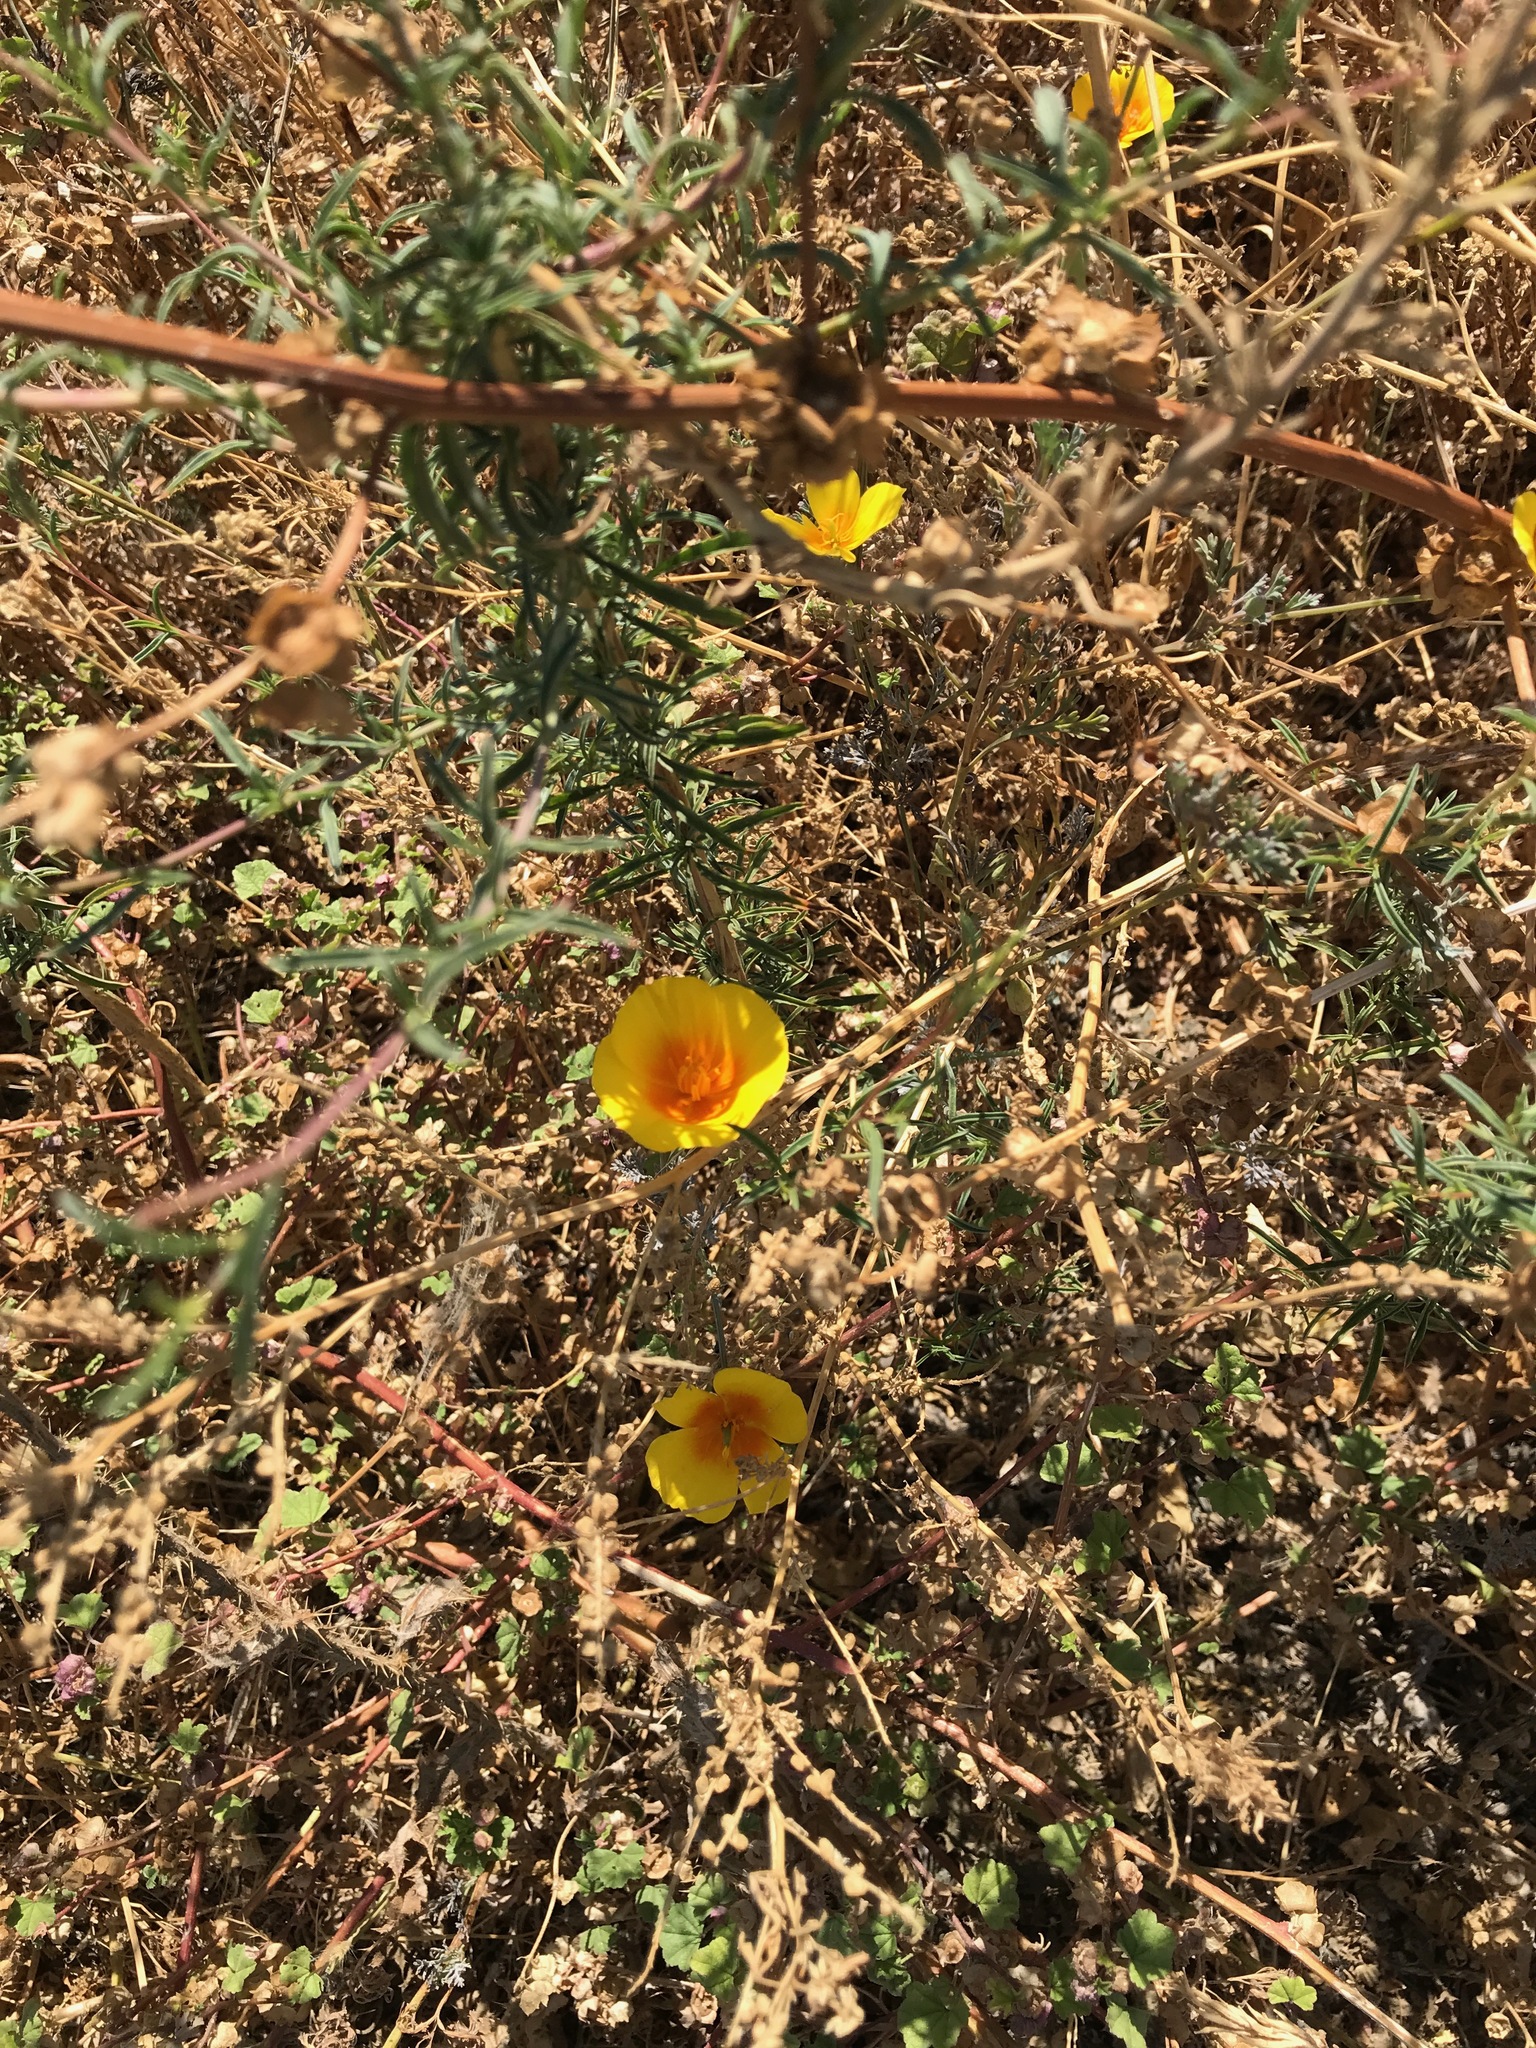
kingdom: Plantae
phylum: Tracheophyta
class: Magnoliopsida
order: Ranunculales
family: Papaveraceae
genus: Eschscholzia
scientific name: Eschscholzia californica
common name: California poppy
